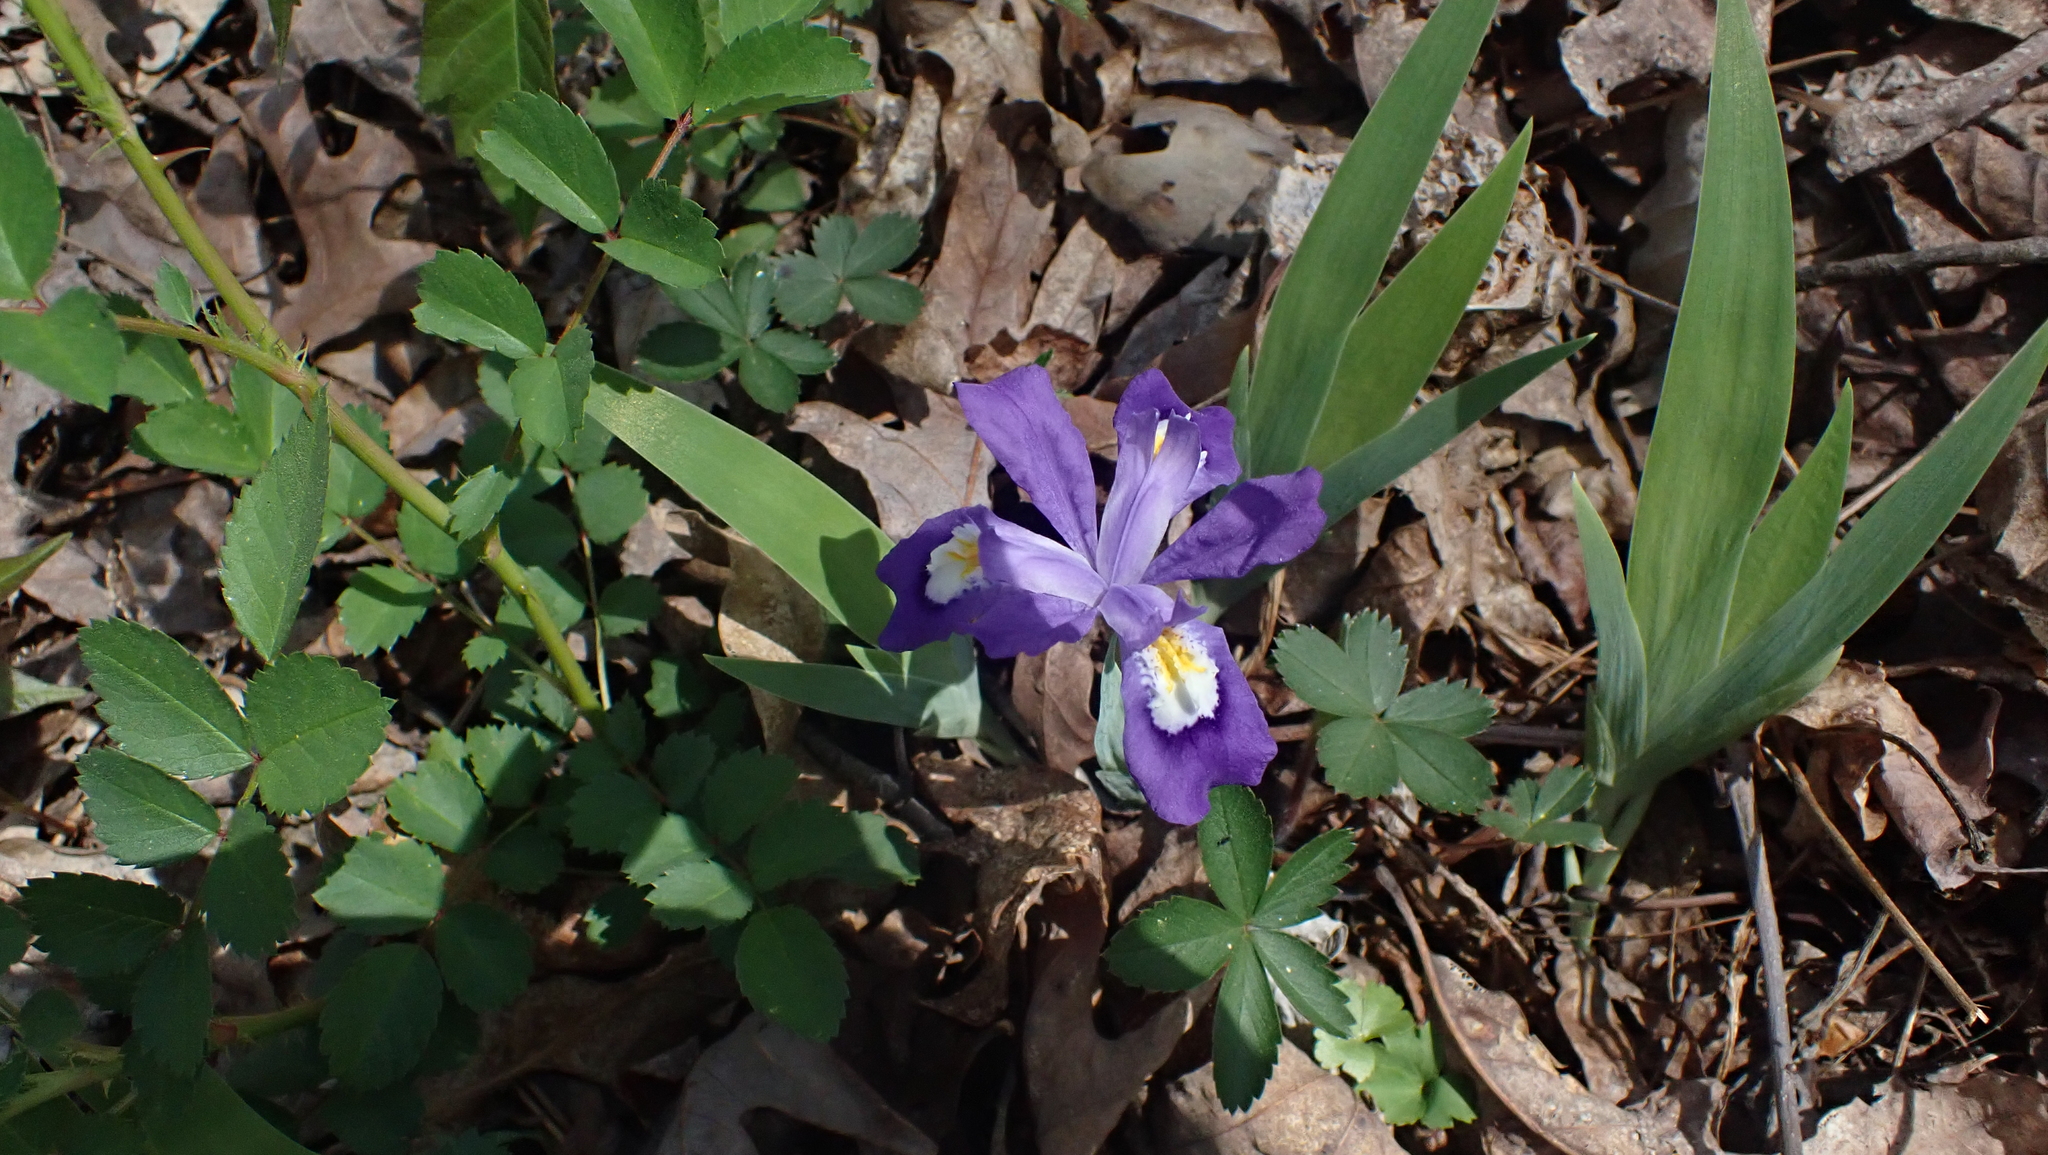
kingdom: Plantae
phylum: Tracheophyta
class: Liliopsida
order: Asparagales
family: Iridaceae
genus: Iris
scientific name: Iris cristata
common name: Crested iris
